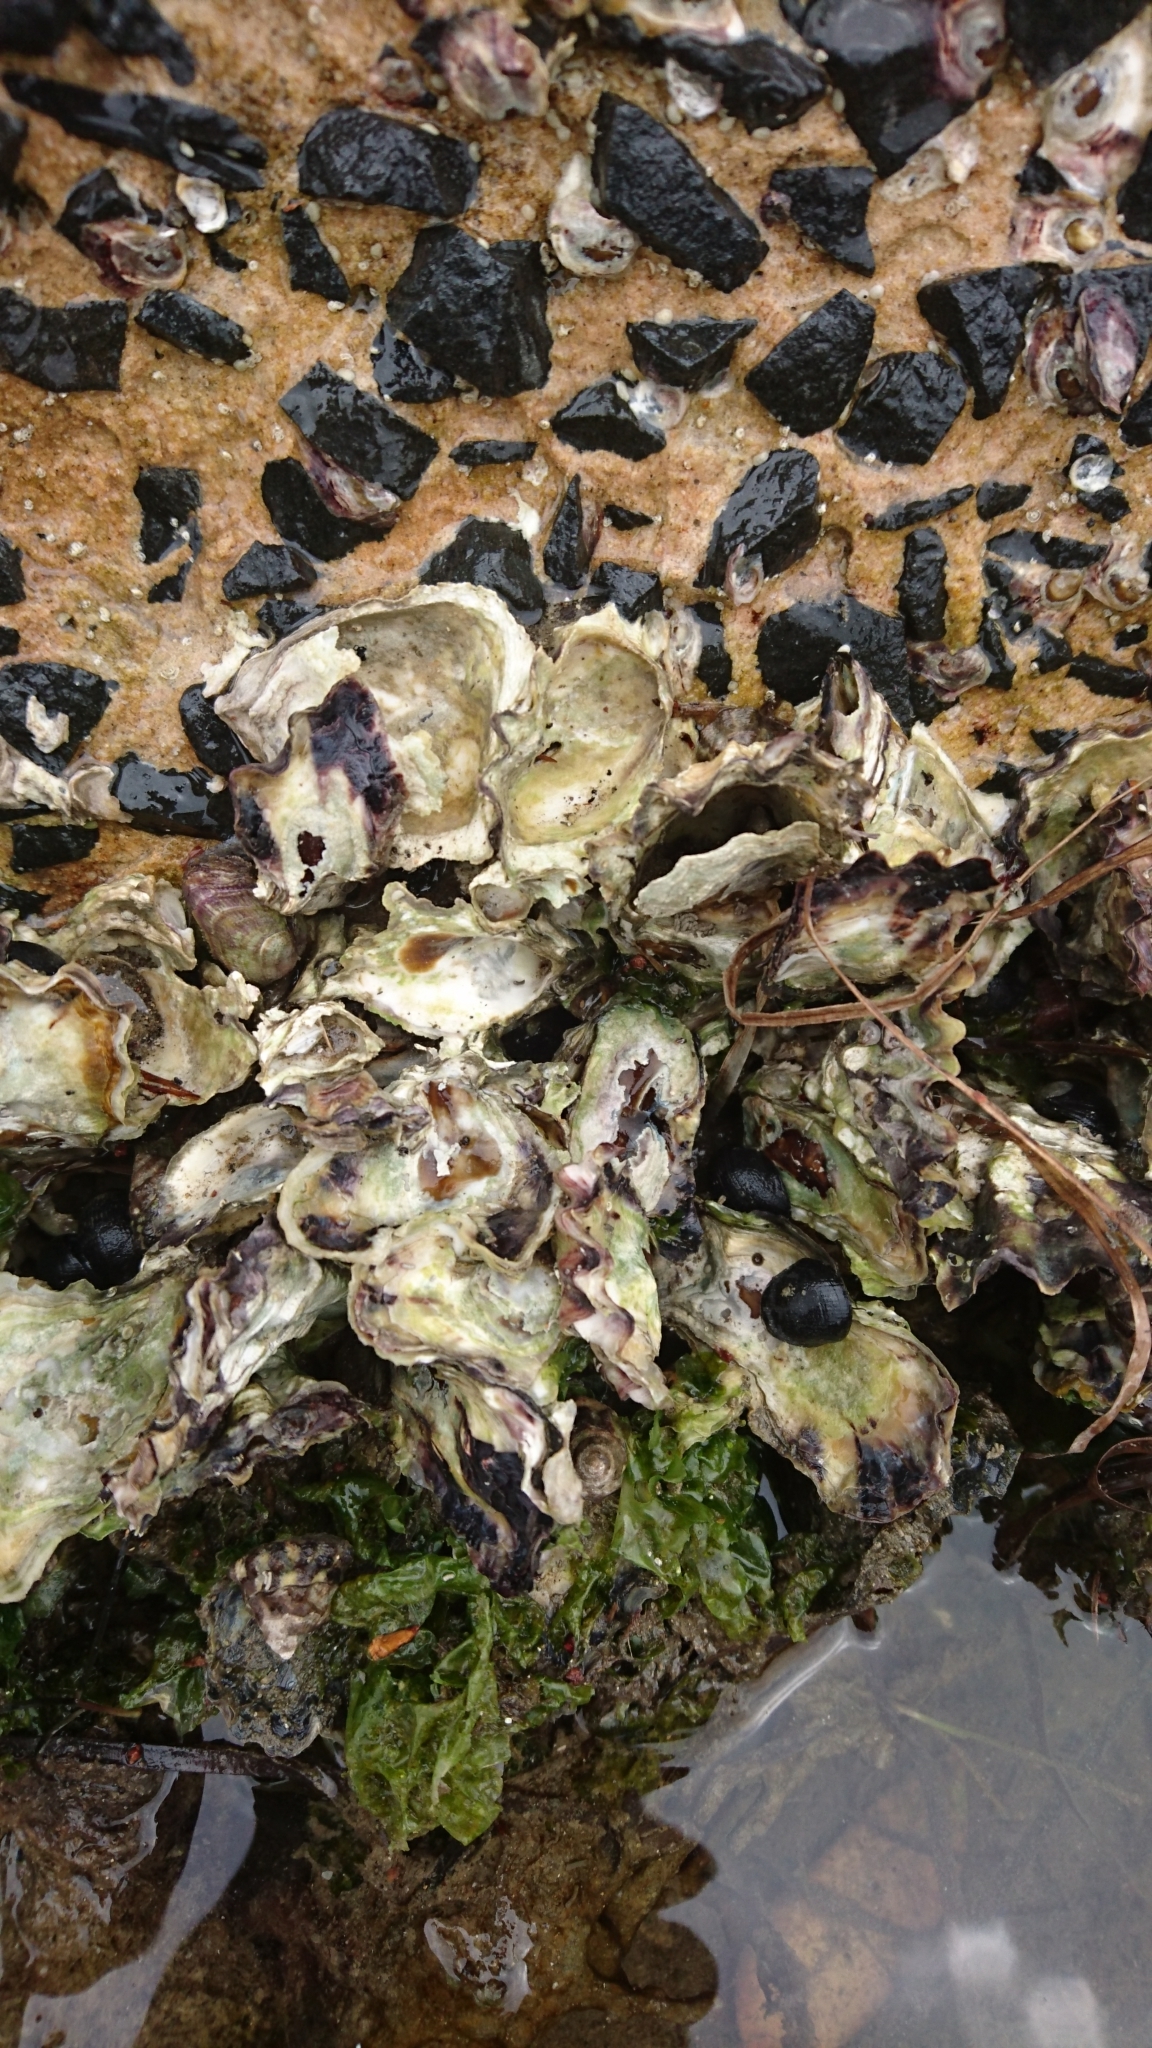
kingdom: Animalia
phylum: Mollusca
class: Bivalvia
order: Ostreida
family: Ostreidae
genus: Saccostrea
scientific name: Saccostrea glomerata
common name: Sydney cupped oyster
